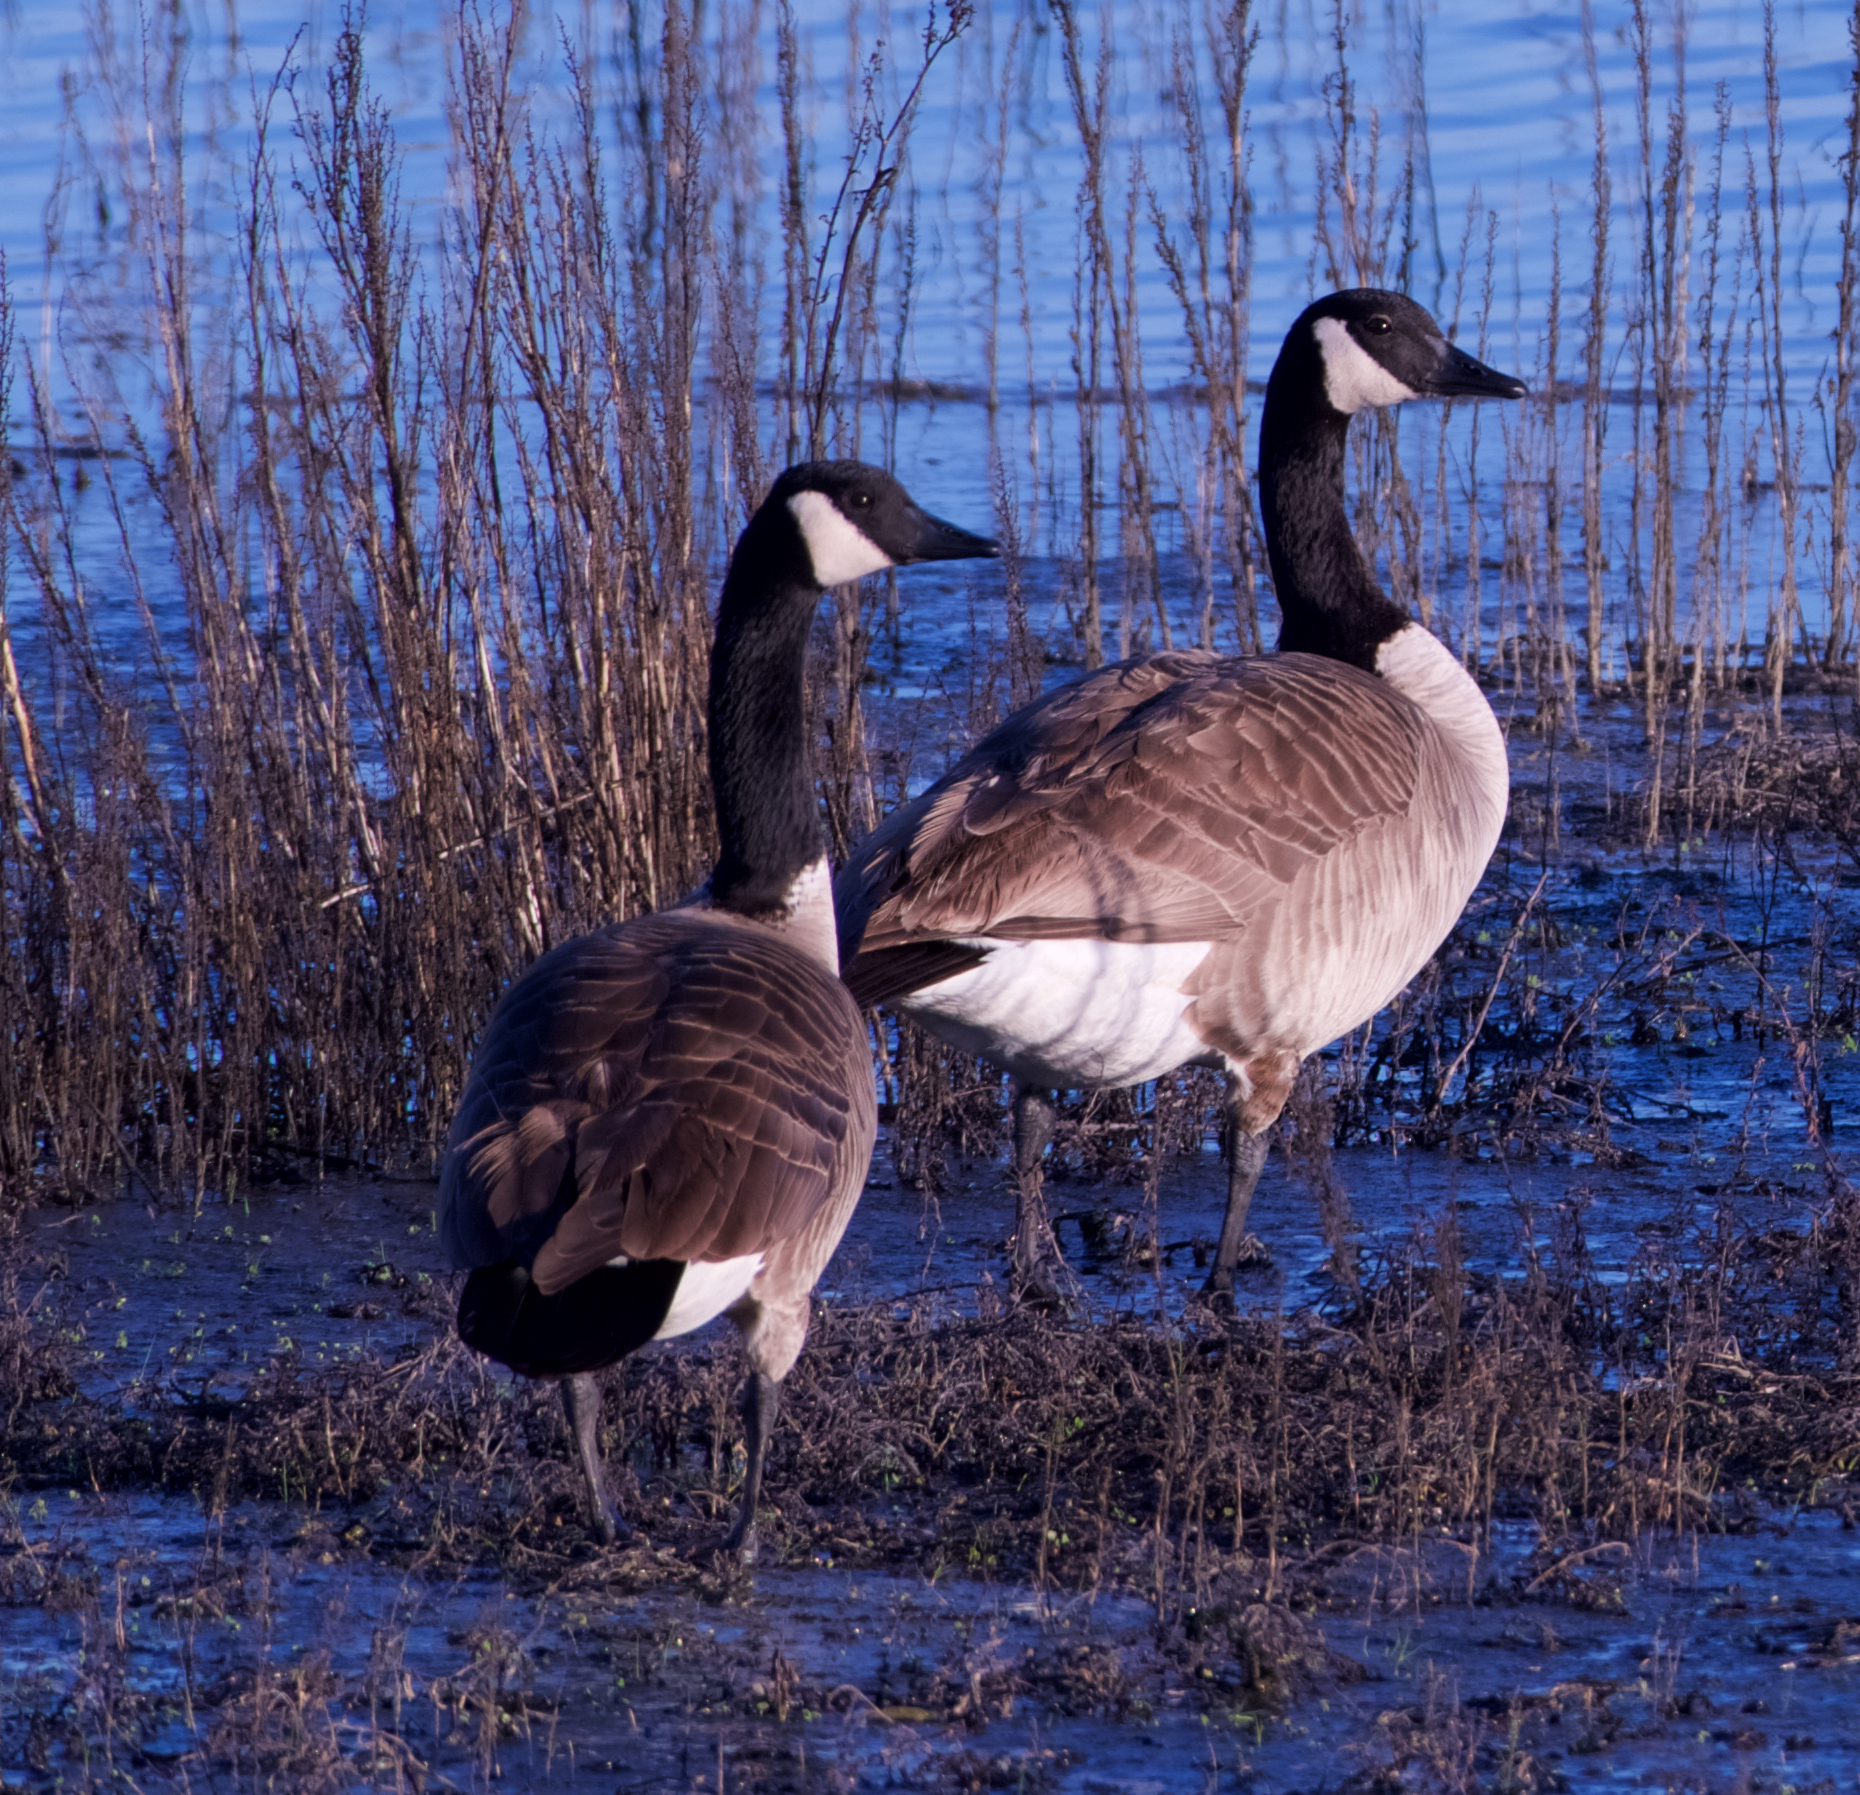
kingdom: Animalia
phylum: Chordata
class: Aves
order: Anseriformes
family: Anatidae
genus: Branta
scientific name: Branta canadensis
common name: Canada goose
